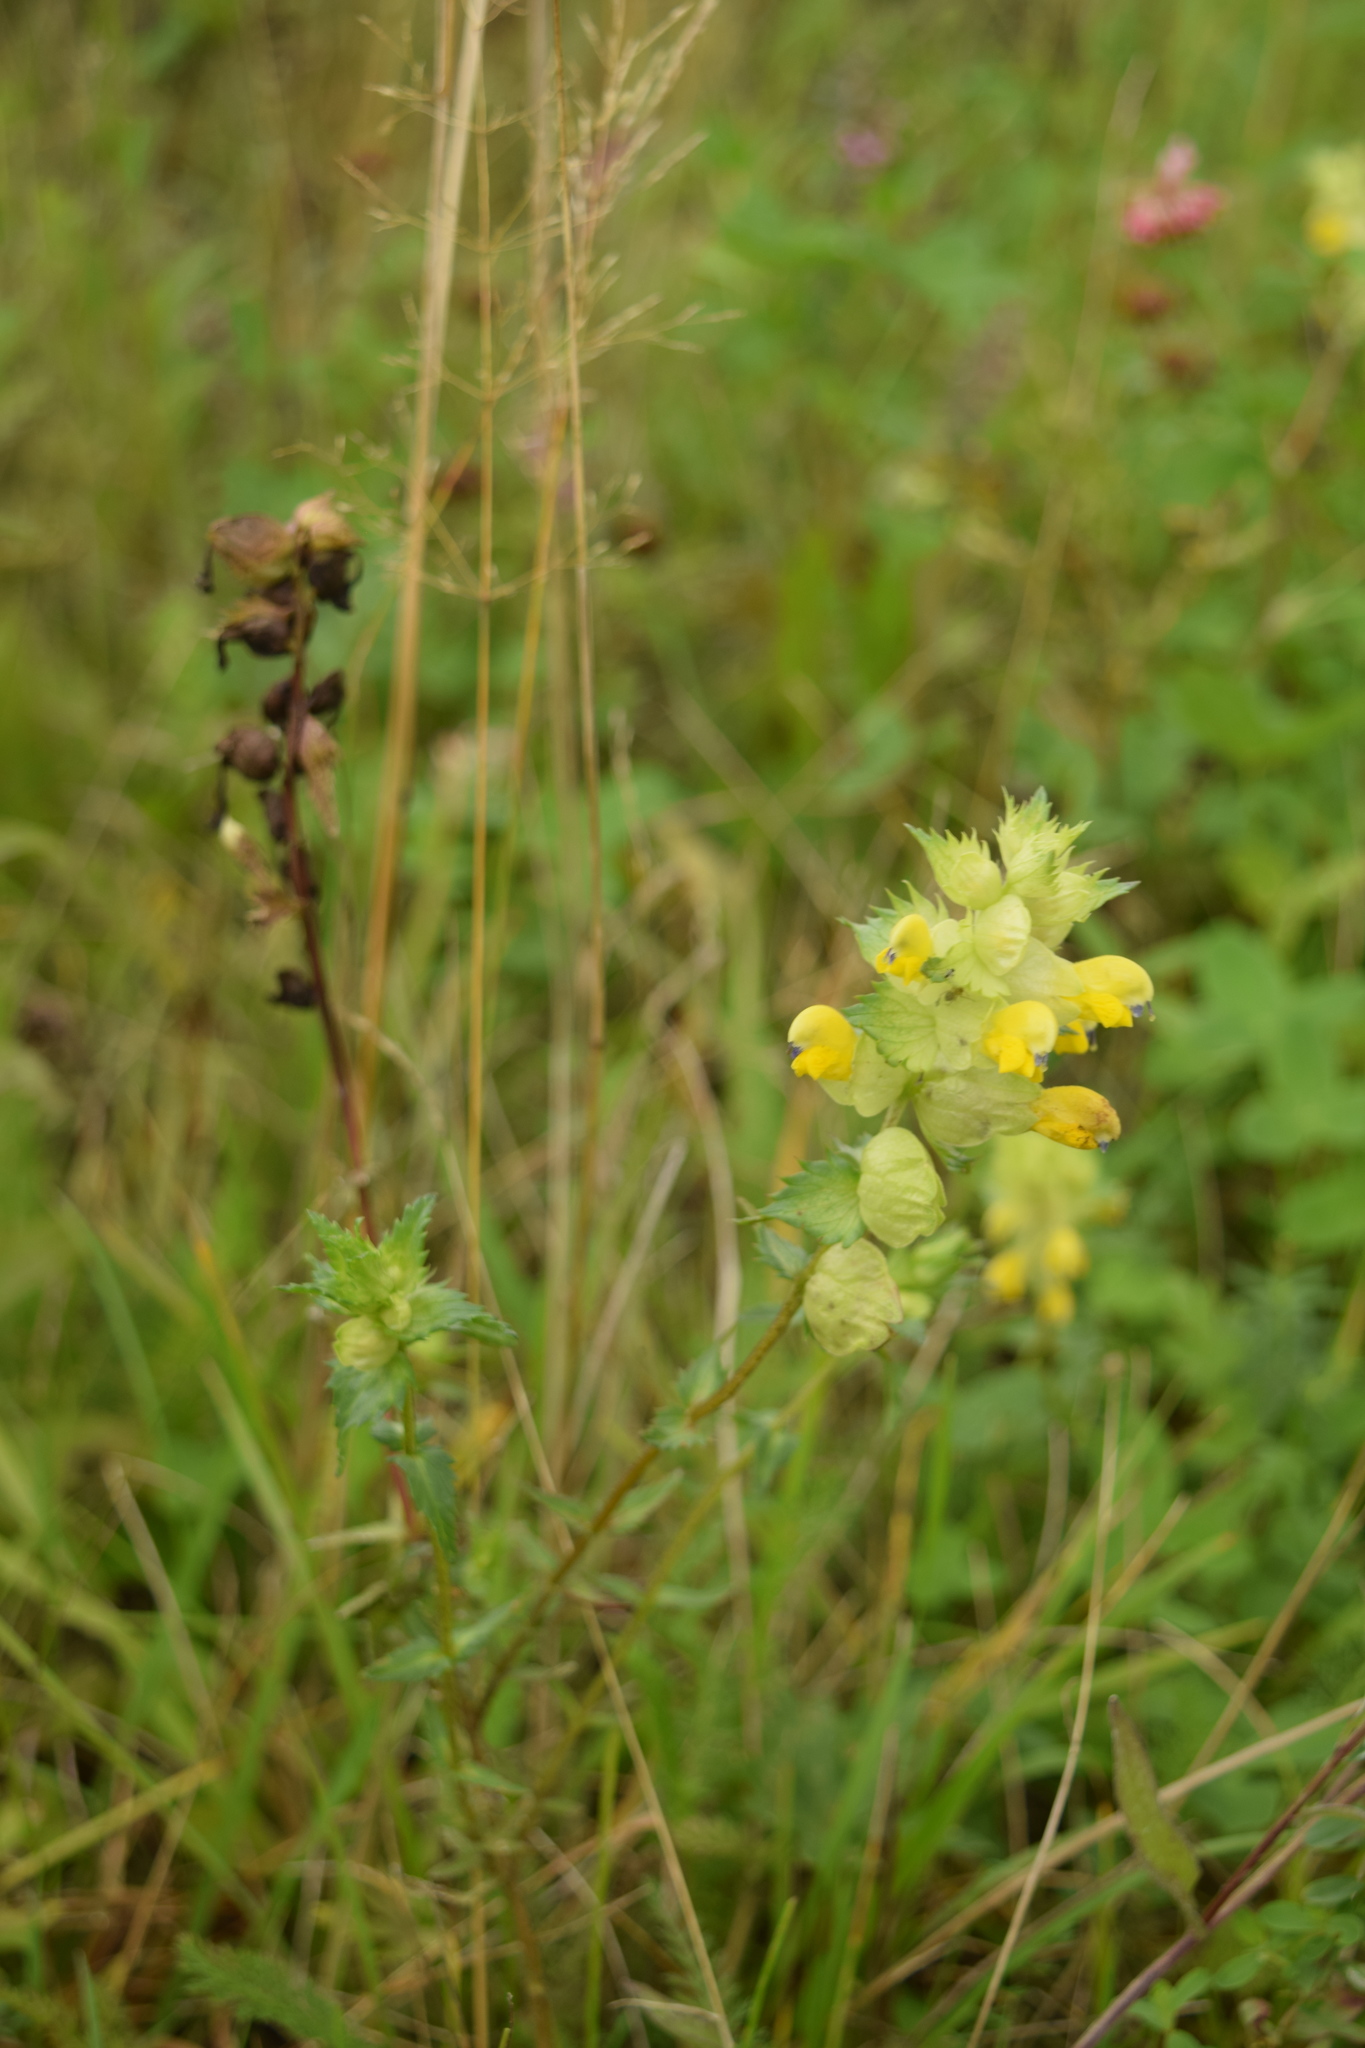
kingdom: Plantae
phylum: Tracheophyta
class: Magnoliopsida
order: Lamiales
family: Orobanchaceae
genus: Rhinanthus
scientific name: Rhinanthus serotinus
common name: Late-flowering yellow rattle
